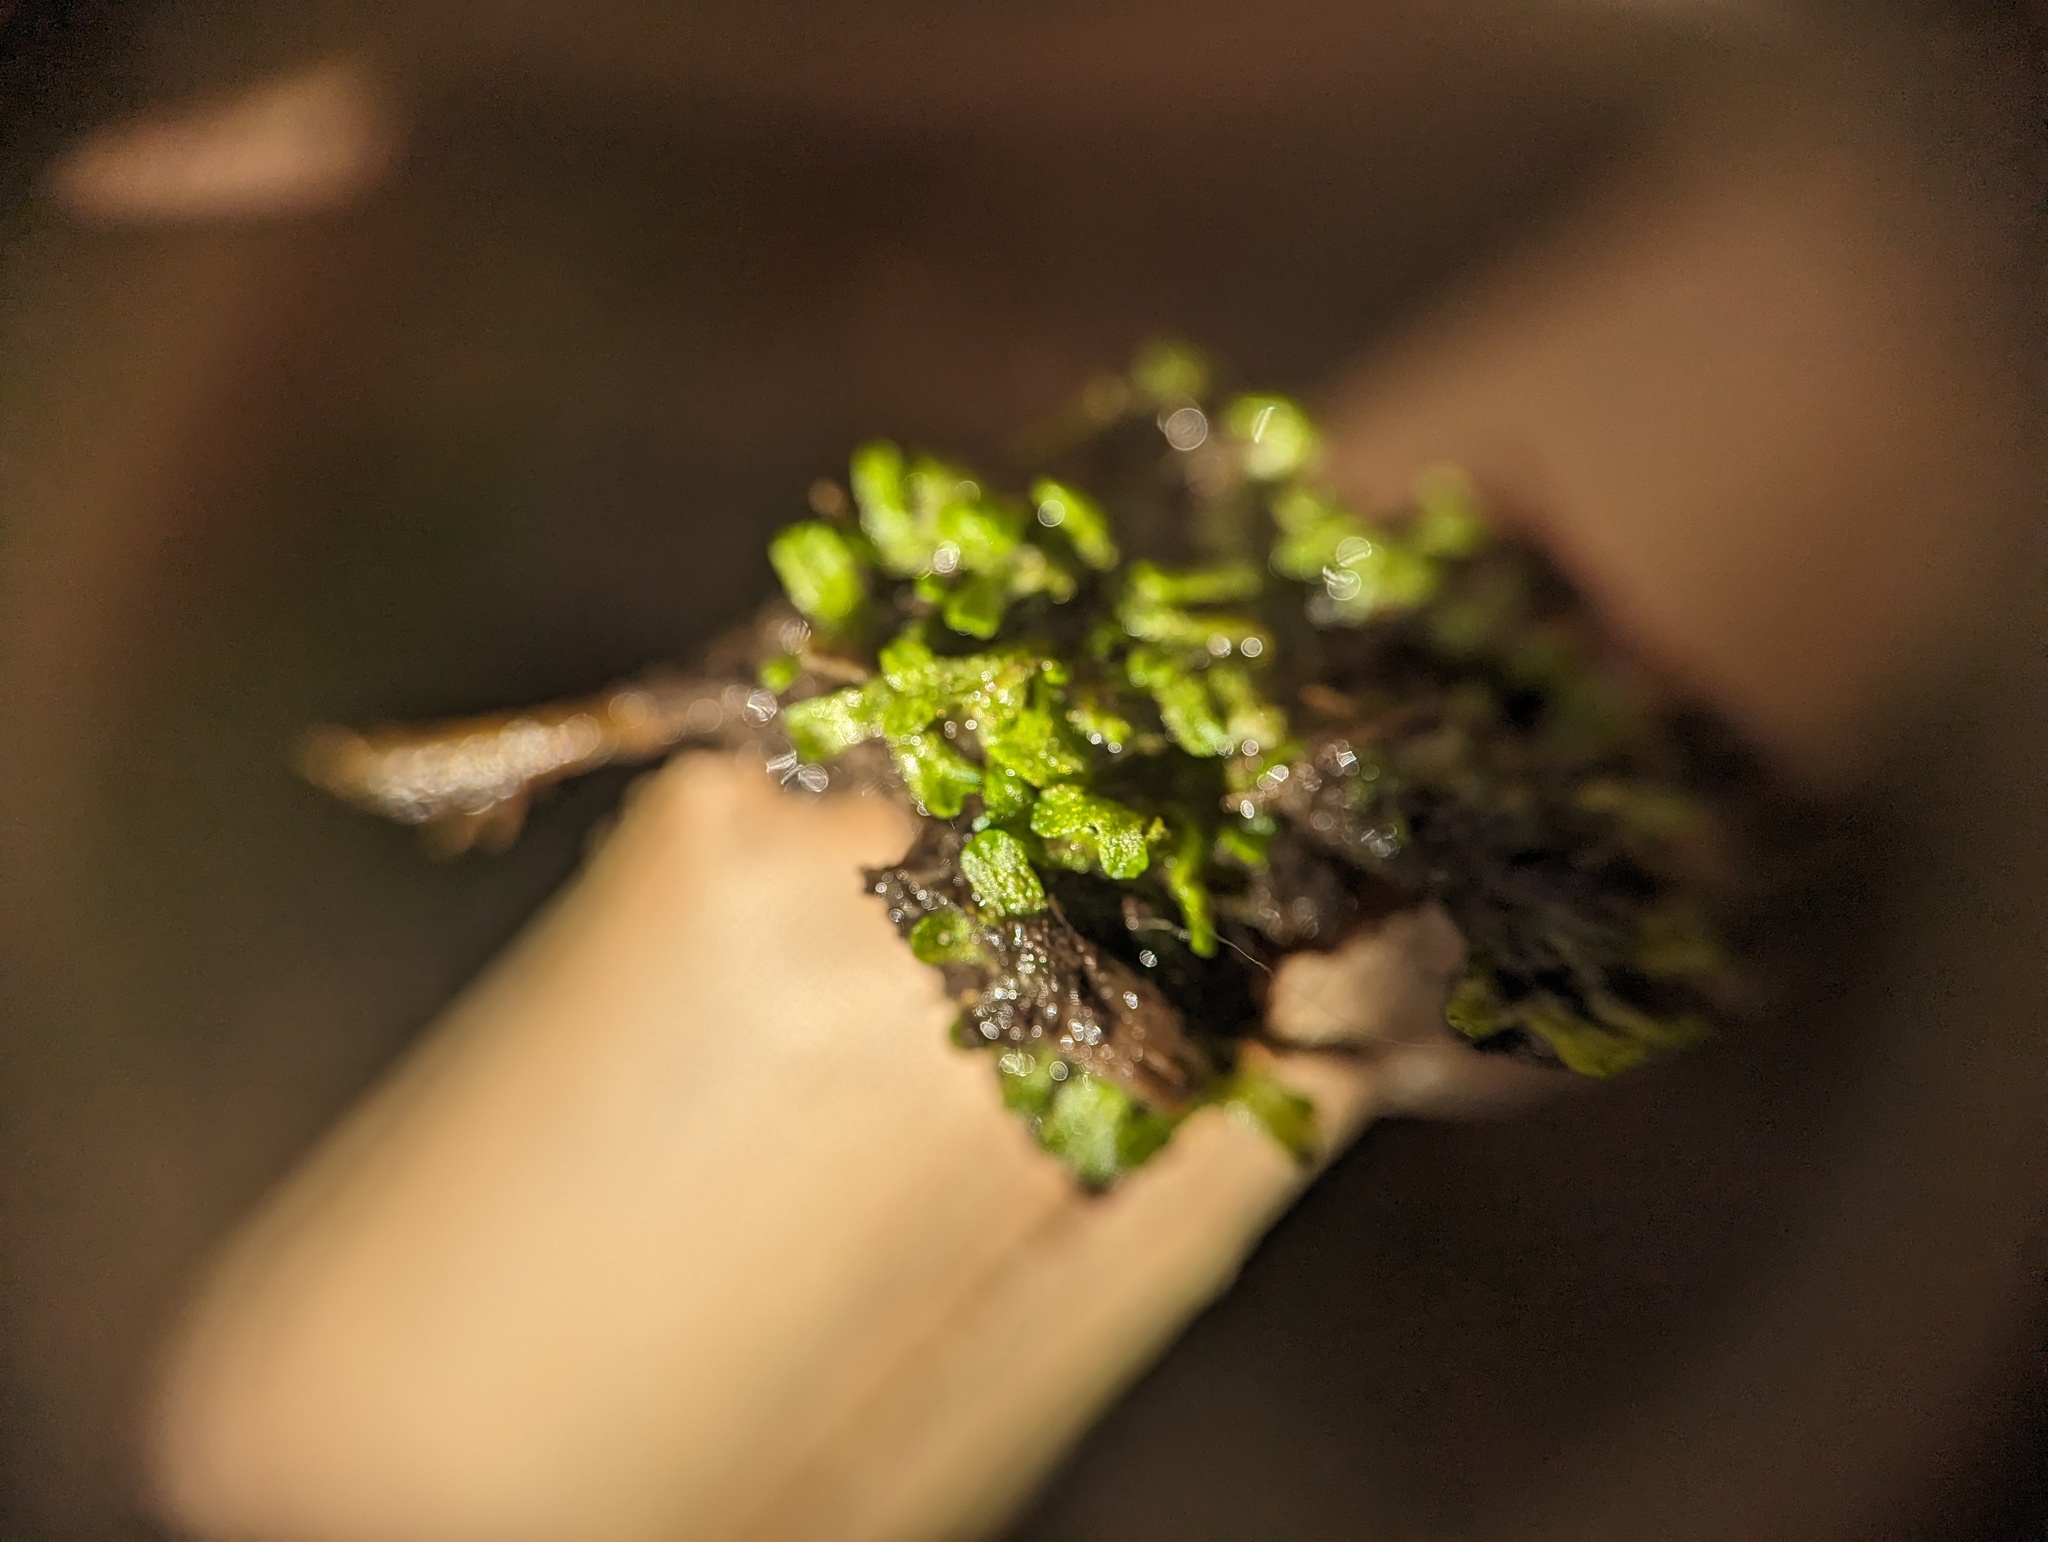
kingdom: Plantae
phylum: Marchantiophyta
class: Marchantiopsida
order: Marchantiales
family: Ricciaceae
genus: Riccia
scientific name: Riccia huebeneriana
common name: Violet crystalwort
